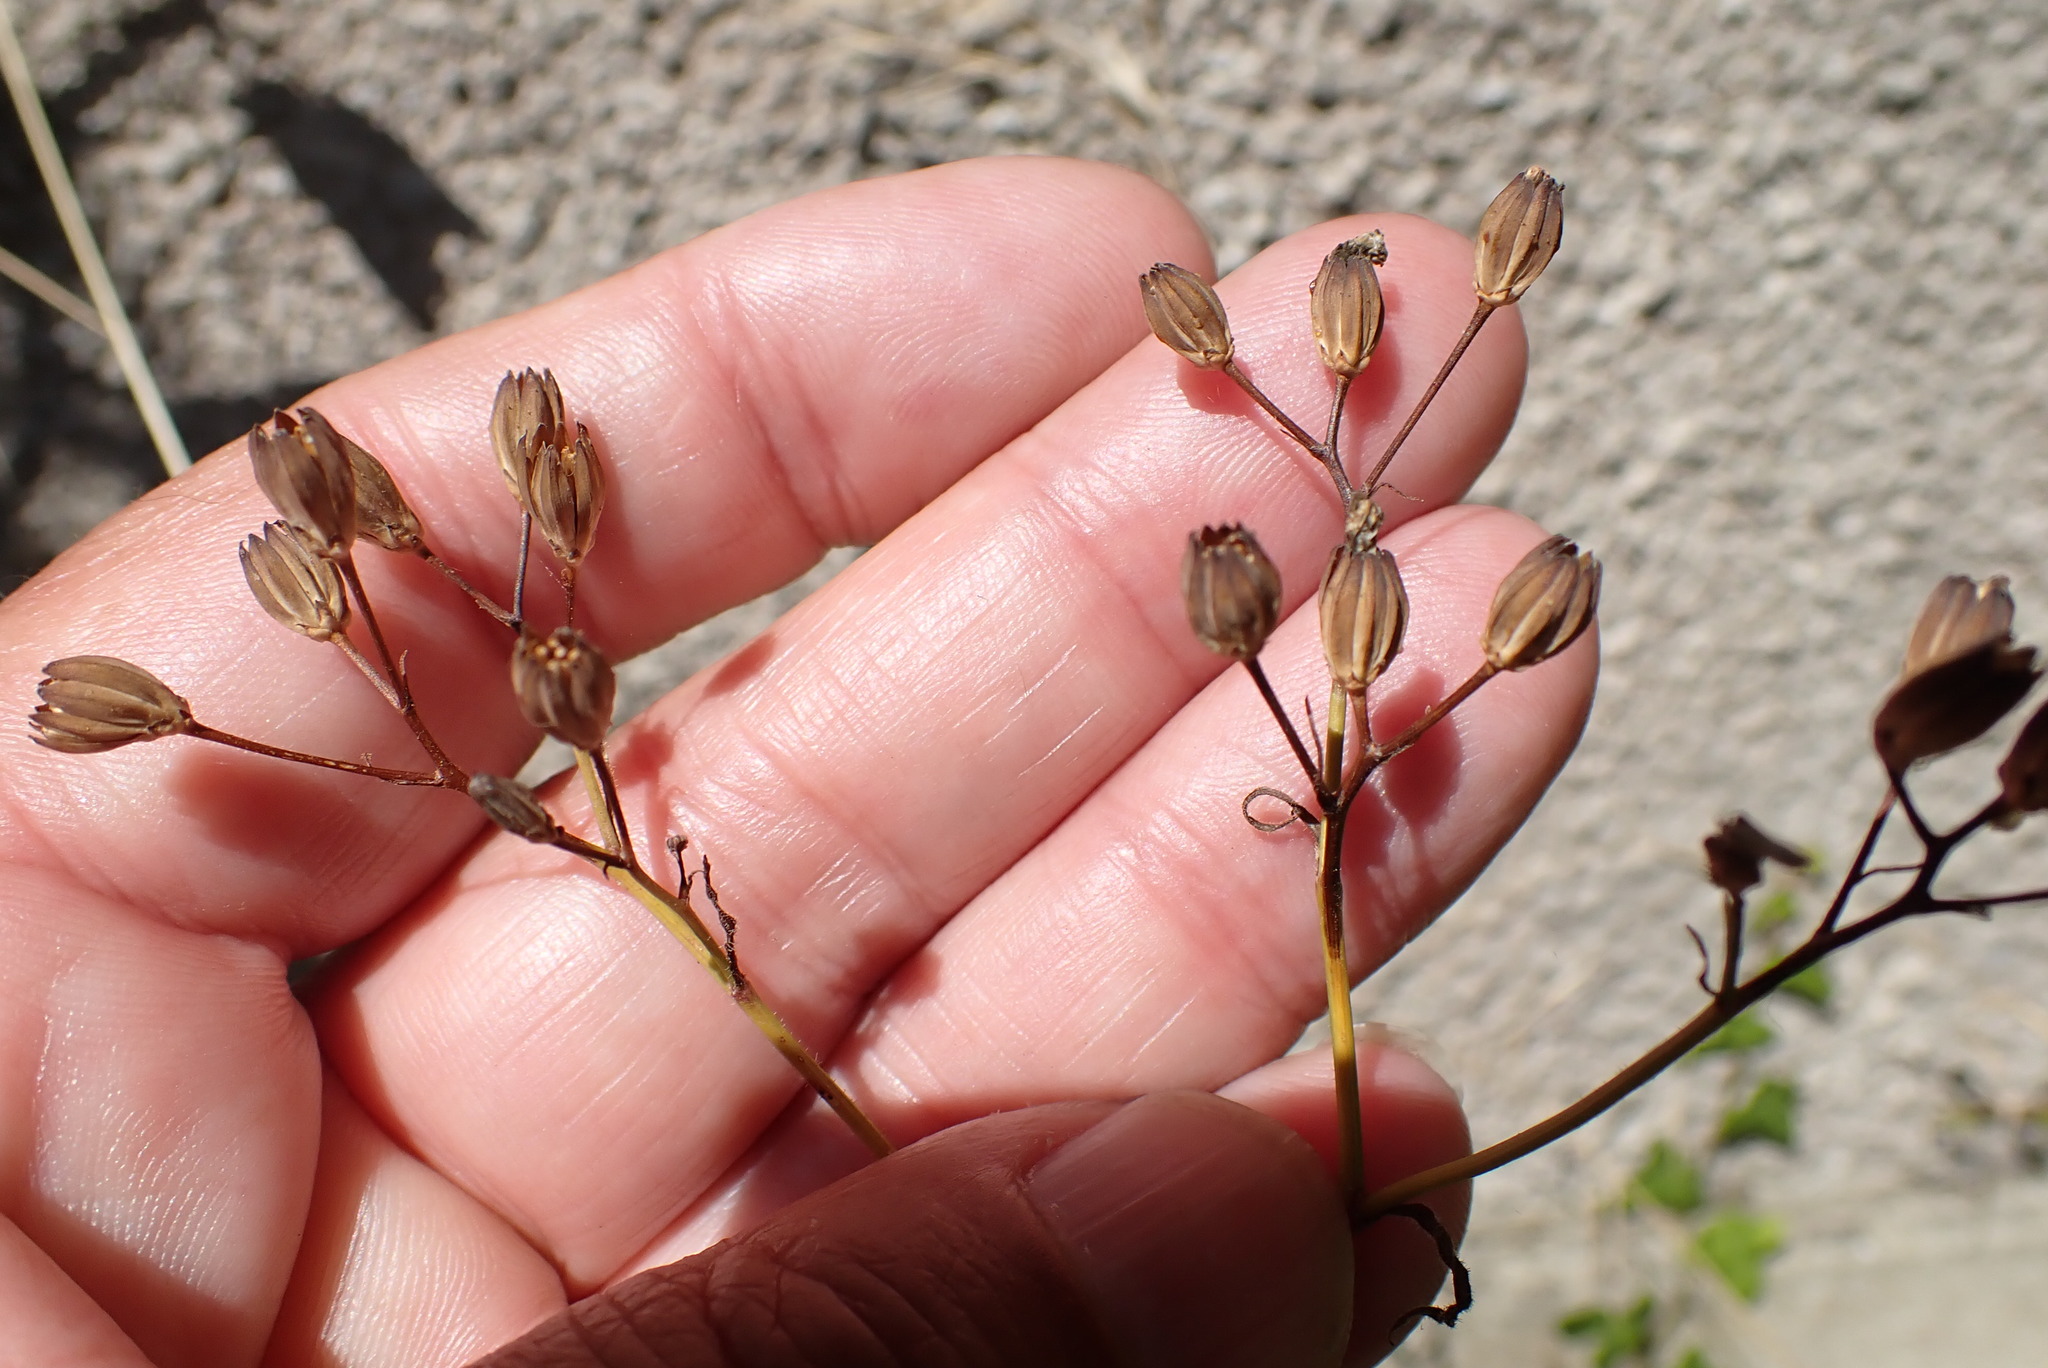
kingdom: Plantae
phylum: Tracheophyta
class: Magnoliopsida
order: Asterales
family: Asteraceae
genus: Lapsana
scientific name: Lapsana communis
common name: Nipplewort
